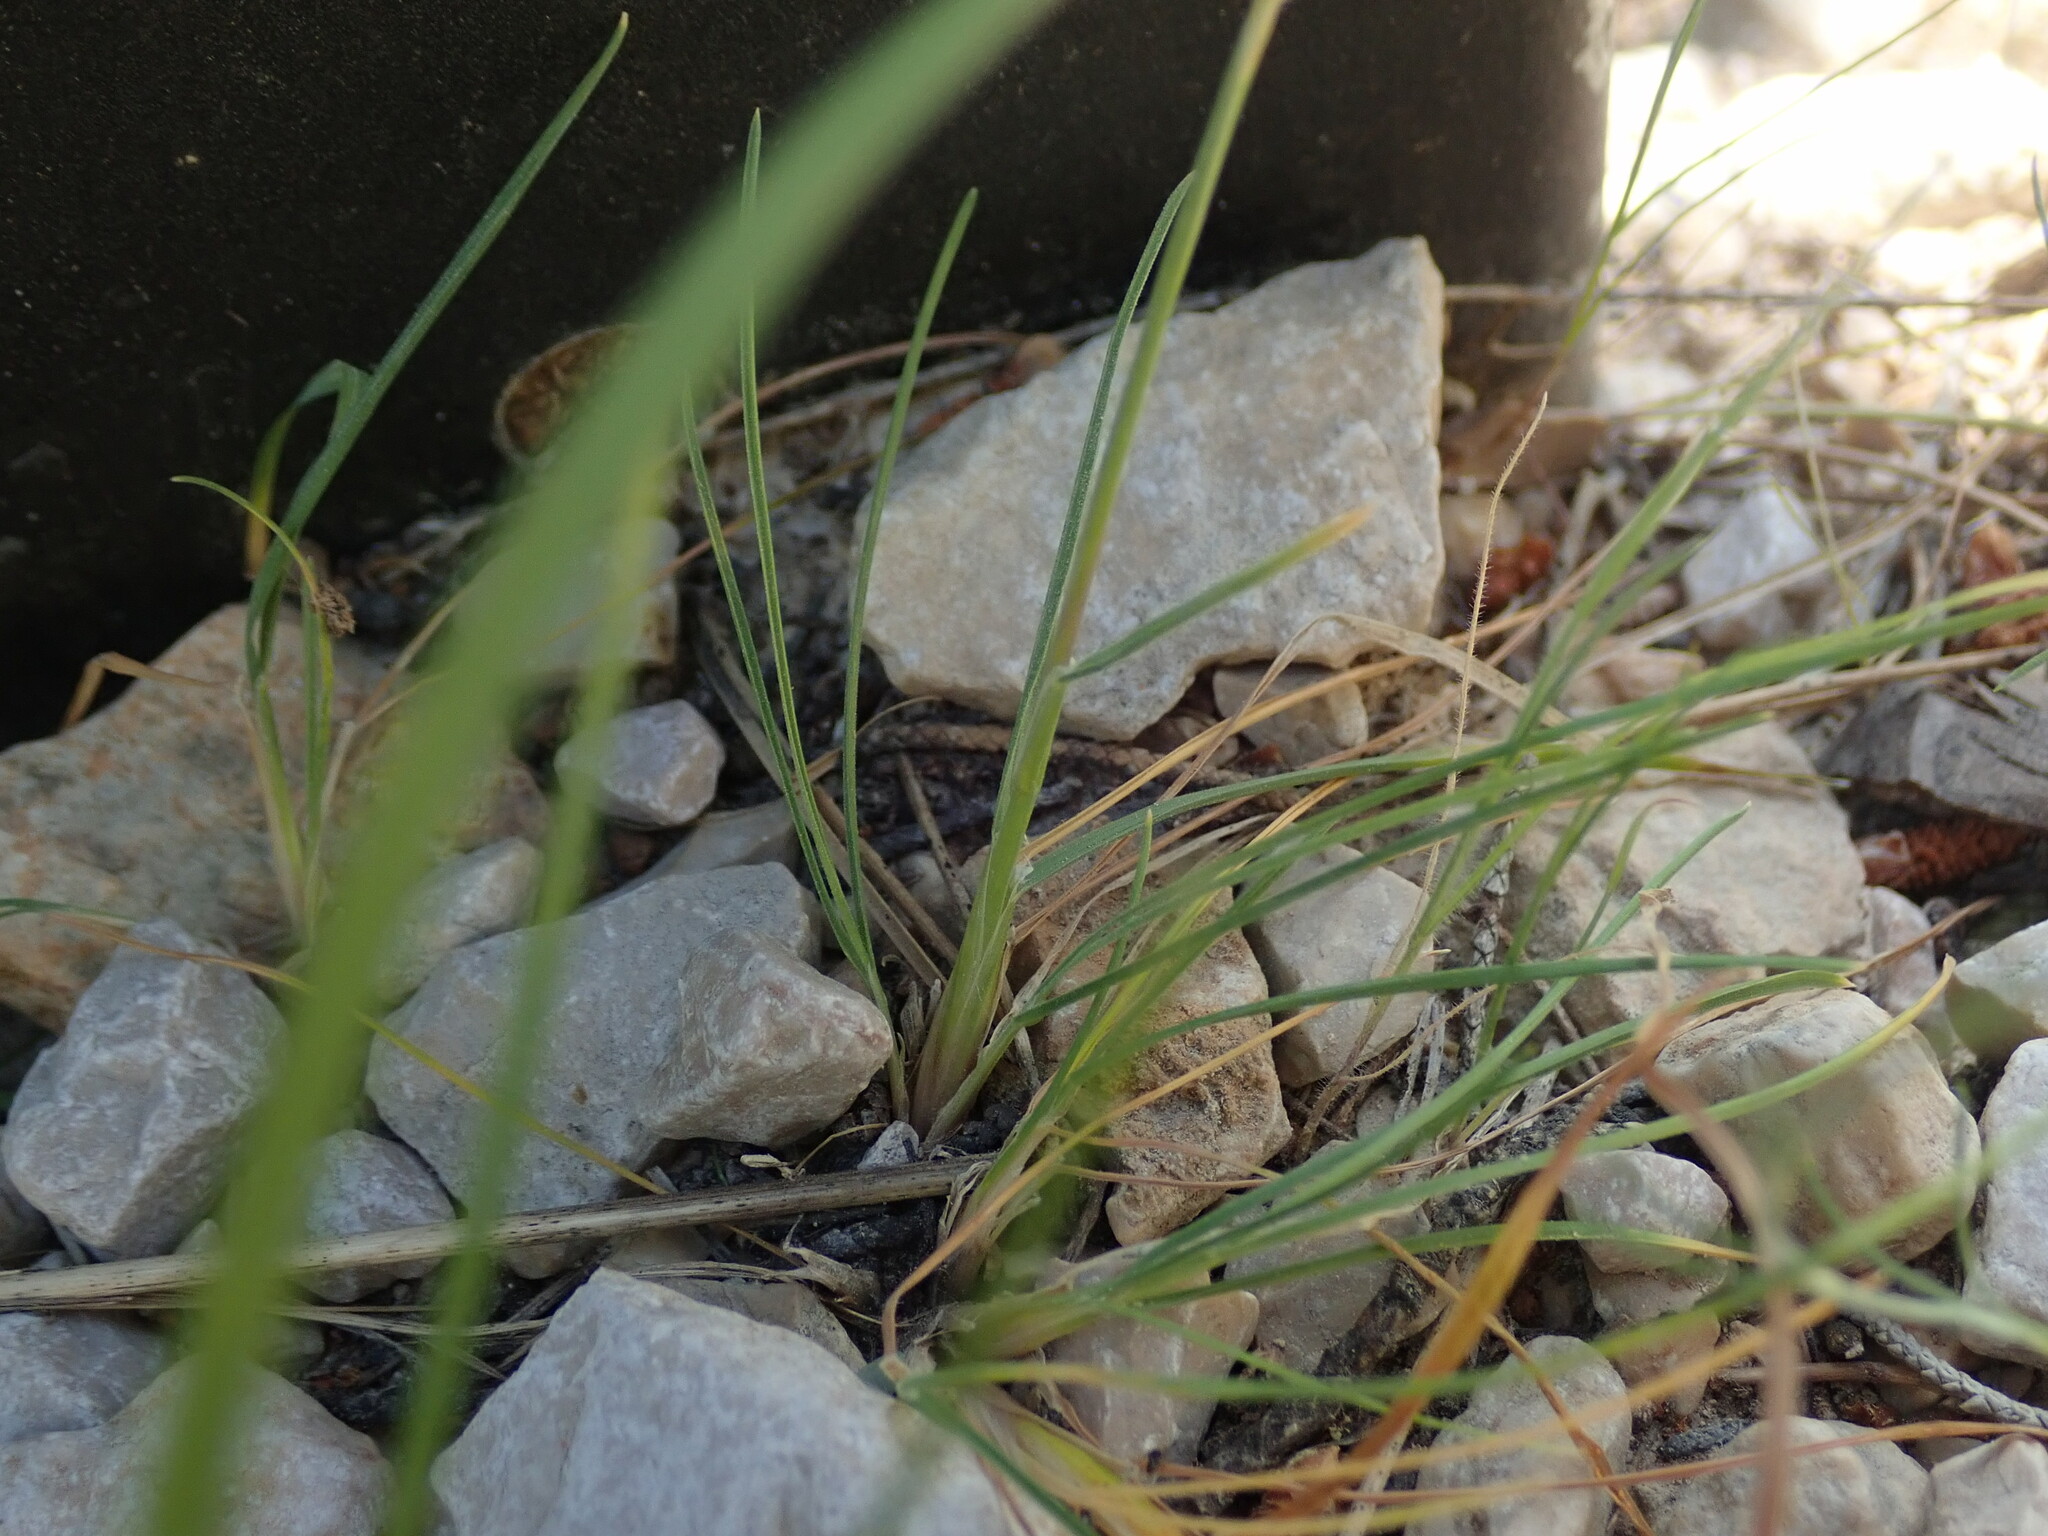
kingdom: Plantae
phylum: Tracheophyta
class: Liliopsida
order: Poales
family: Poaceae
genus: Poa
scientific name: Poa bulbosa
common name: Bulbous bluegrass
